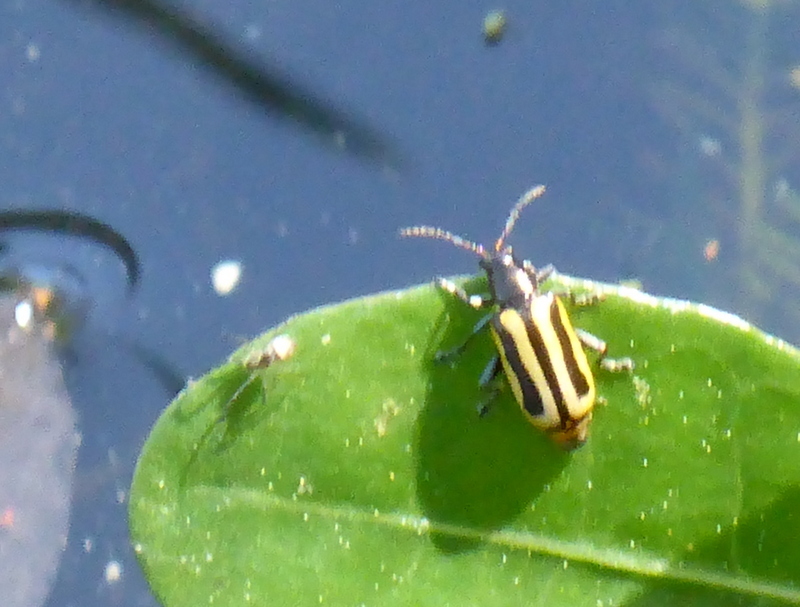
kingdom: Animalia
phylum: Arthropoda
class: Insecta
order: Coleoptera
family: Chrysomelidae
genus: Agasicles
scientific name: Agasicles hygrophila
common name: Alligatorweed flea beetle
